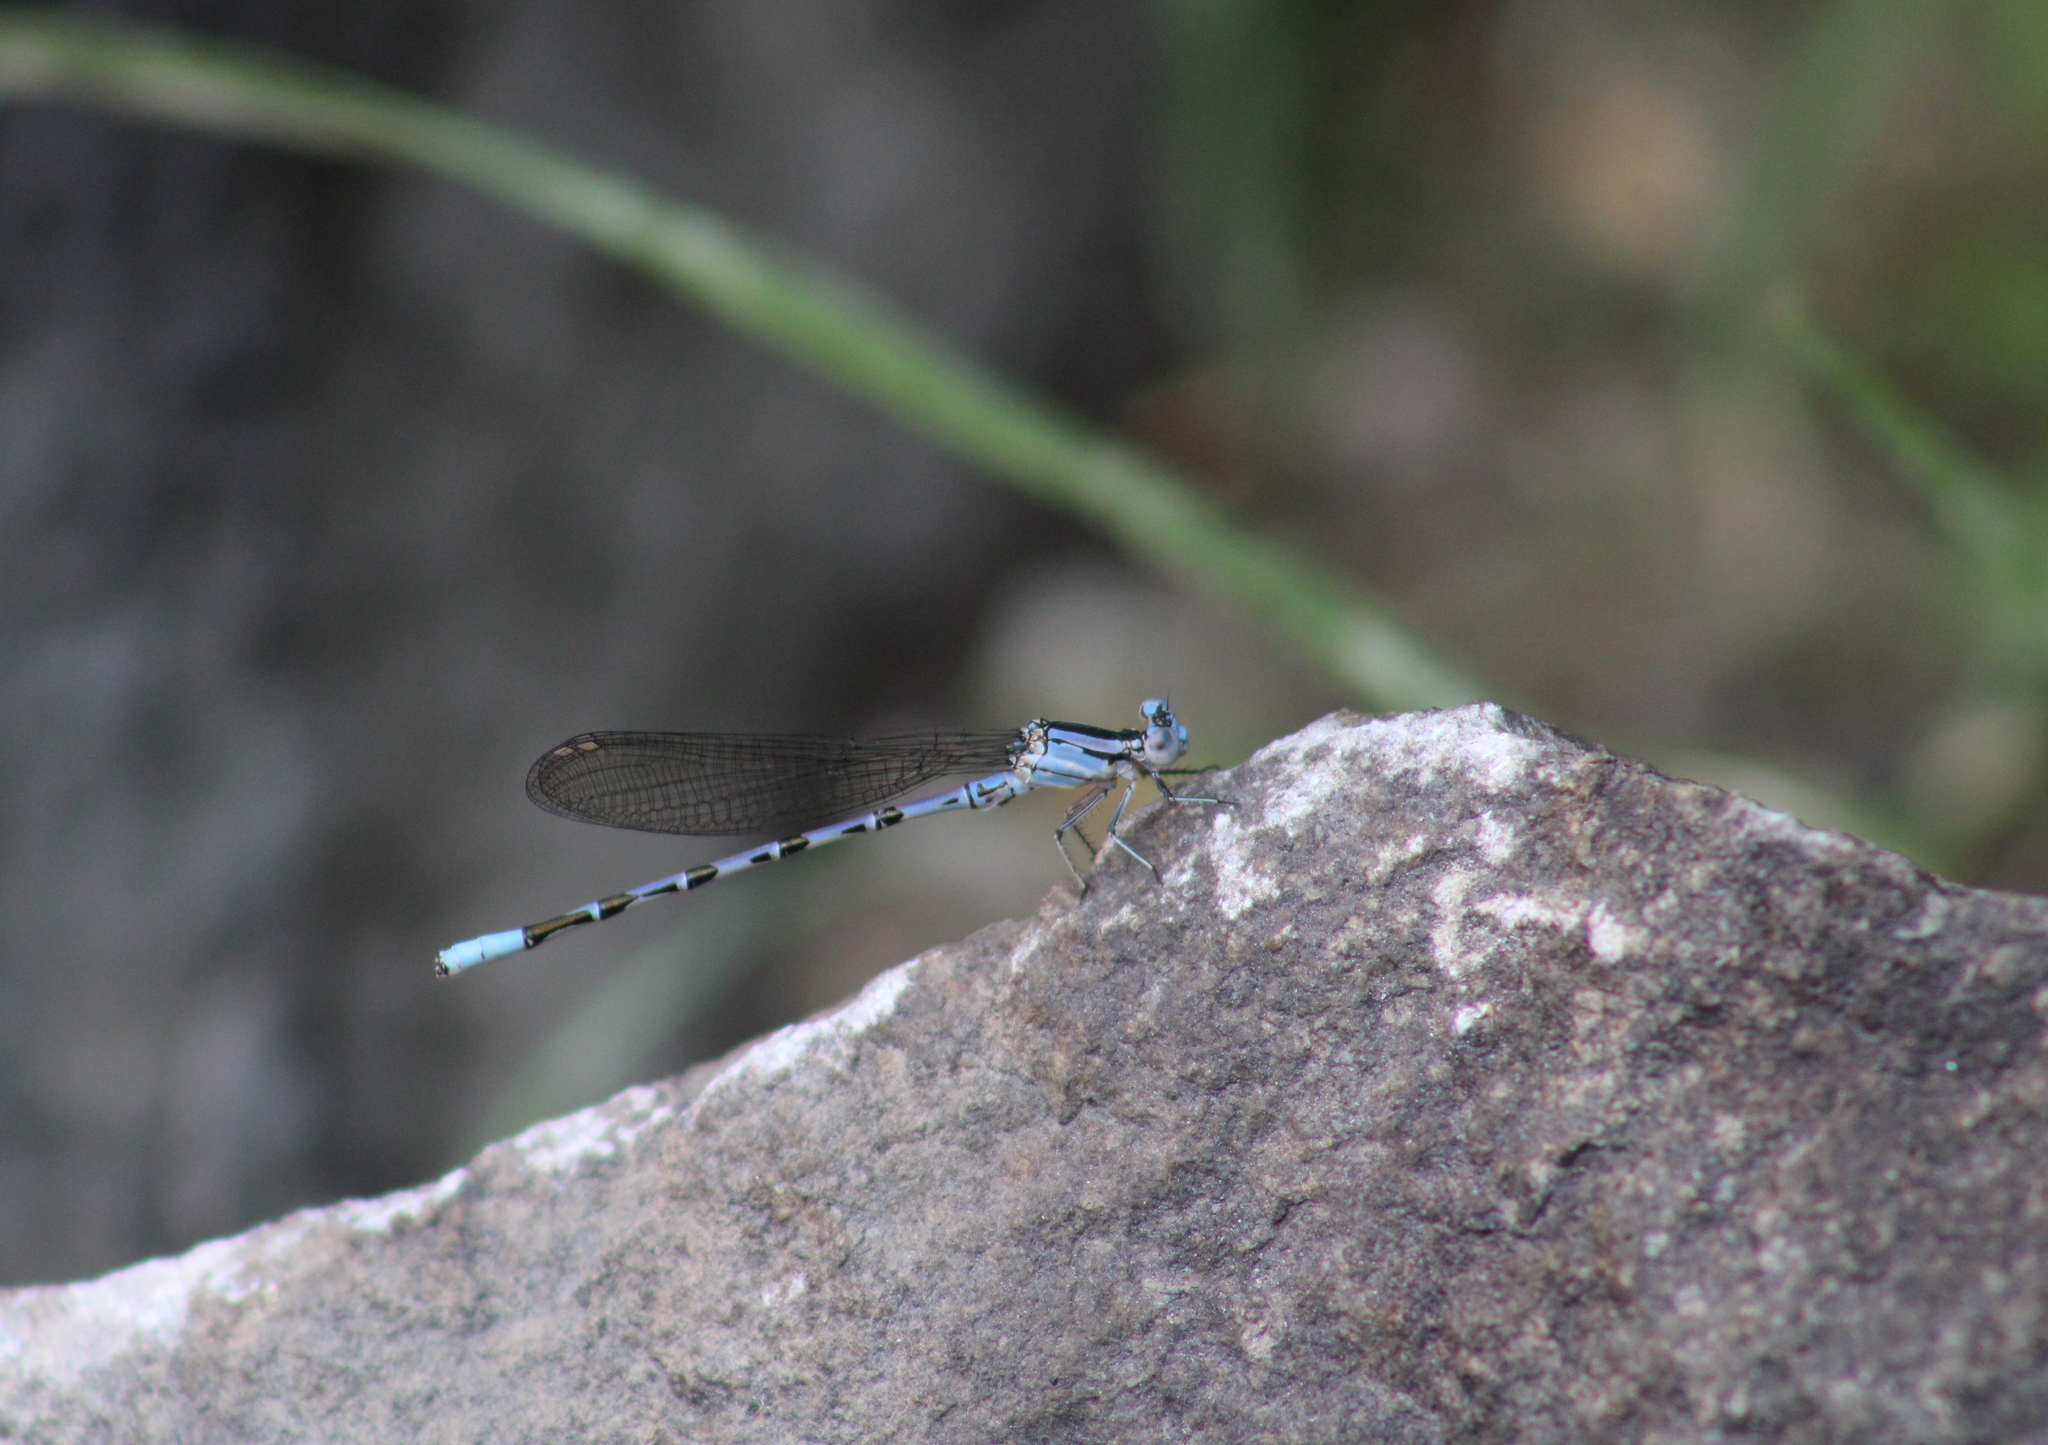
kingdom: Animalia
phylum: Arthropoda
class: Insecta
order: Odonata
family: Coenagrionidae
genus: Argia
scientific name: Argia vivida
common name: Vivid dancer
